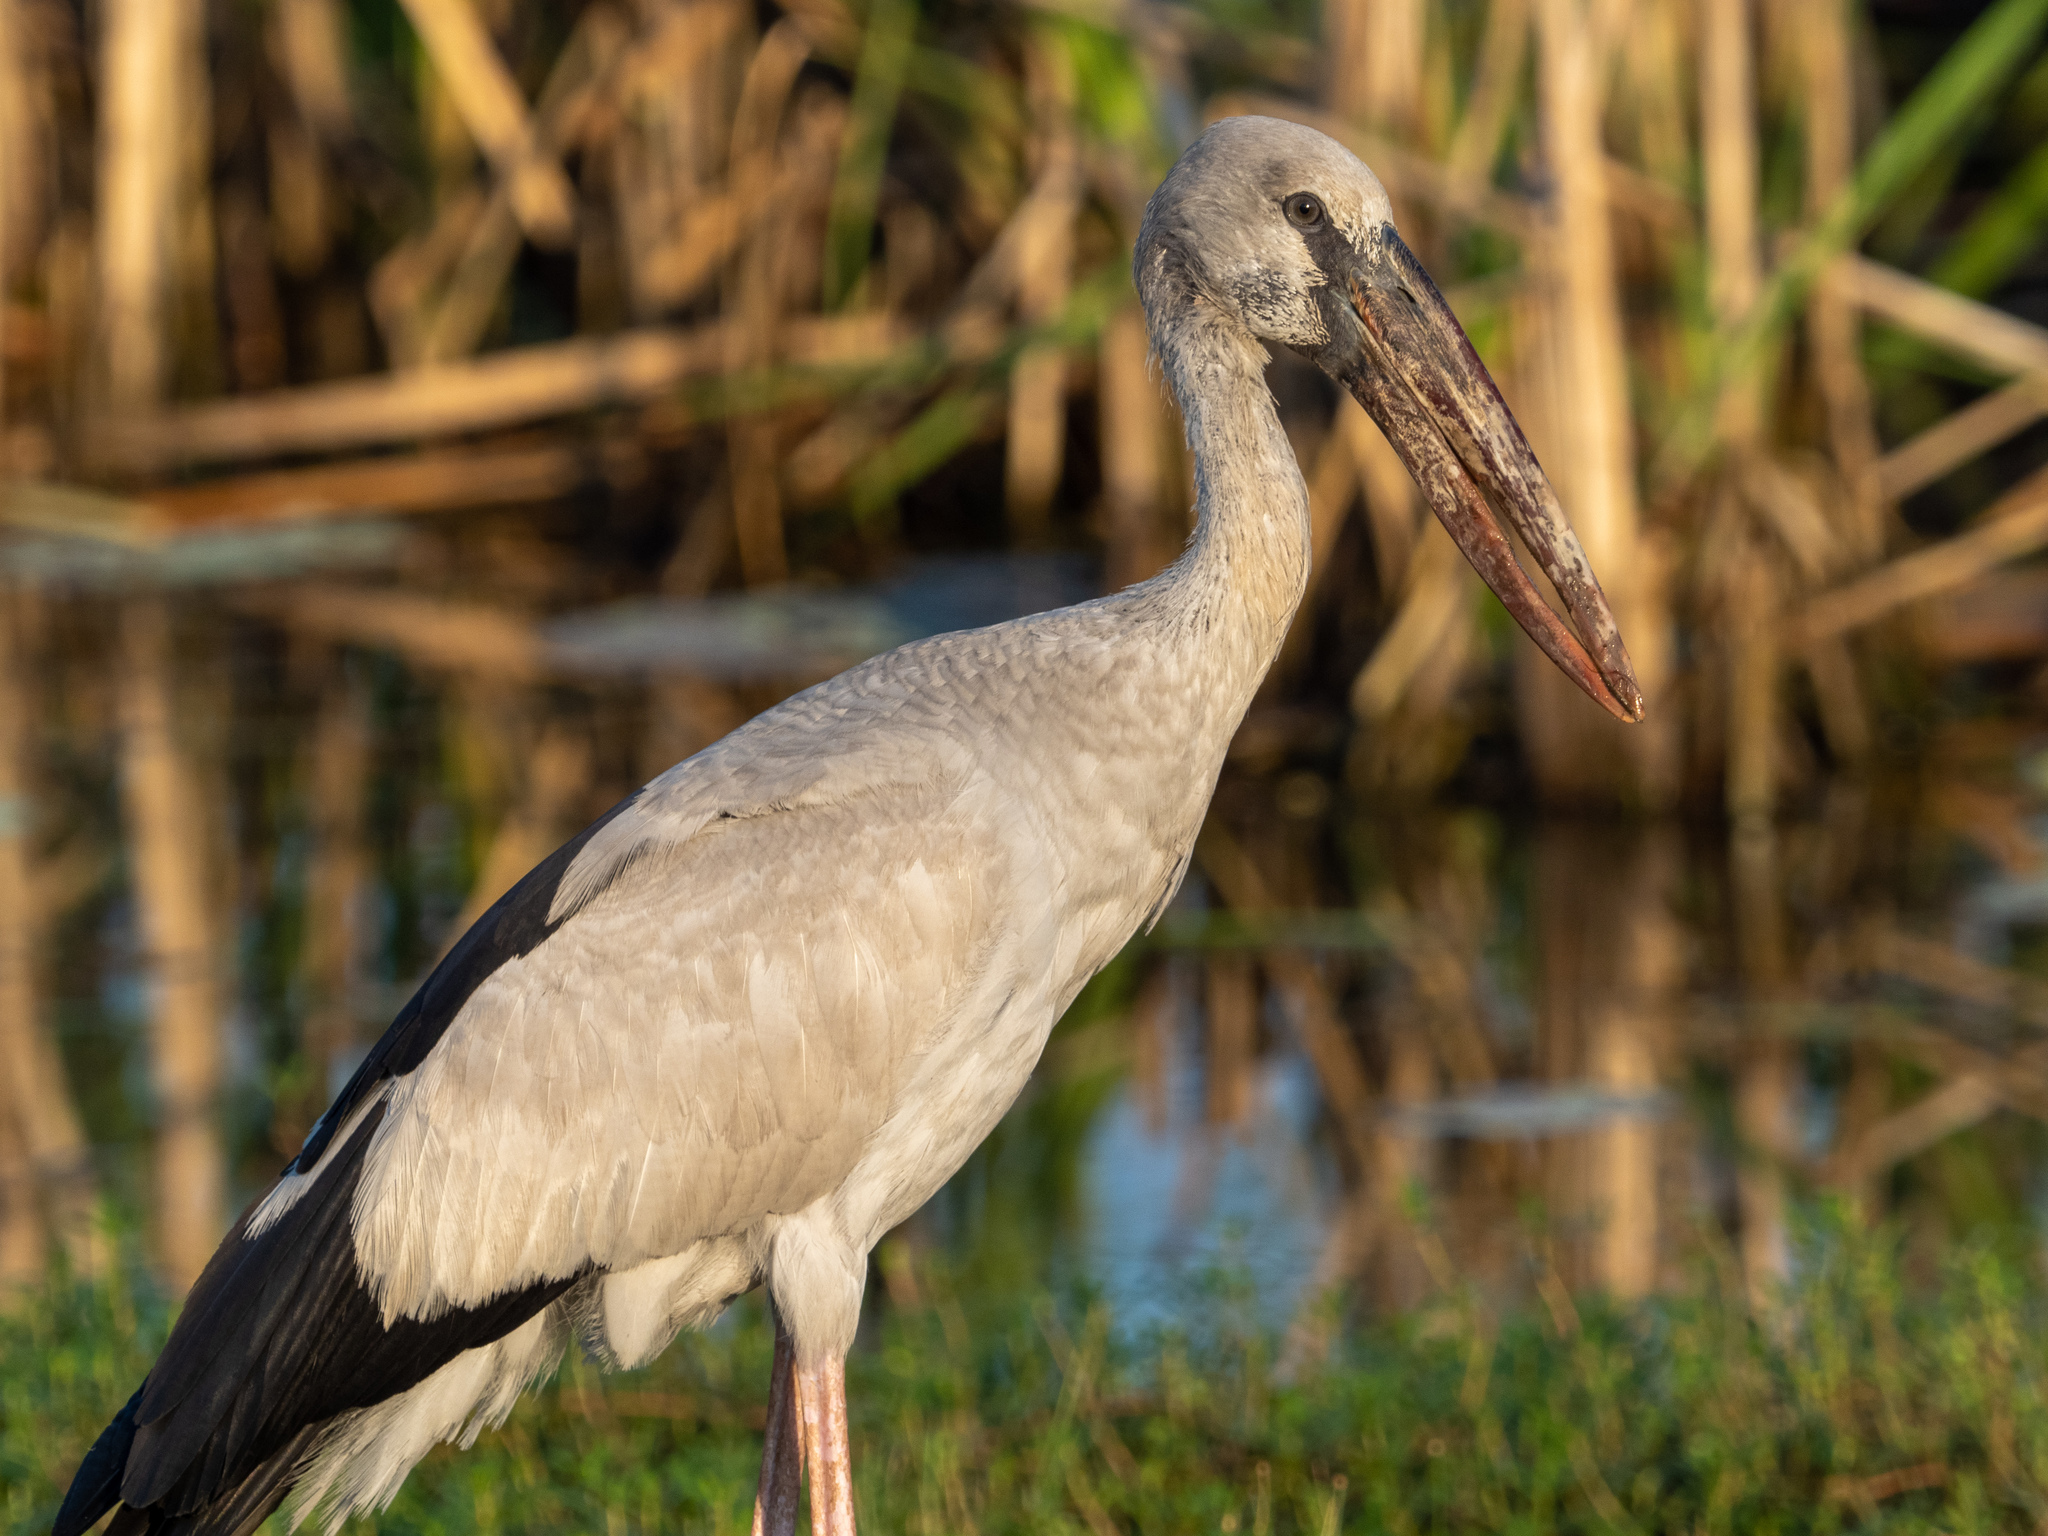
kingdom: Animalia
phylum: Chordata
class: Aves
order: Ciconiiformes
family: Ciconiidae
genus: Anastomus
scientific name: Anastomus oscitans
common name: Asian openbill
